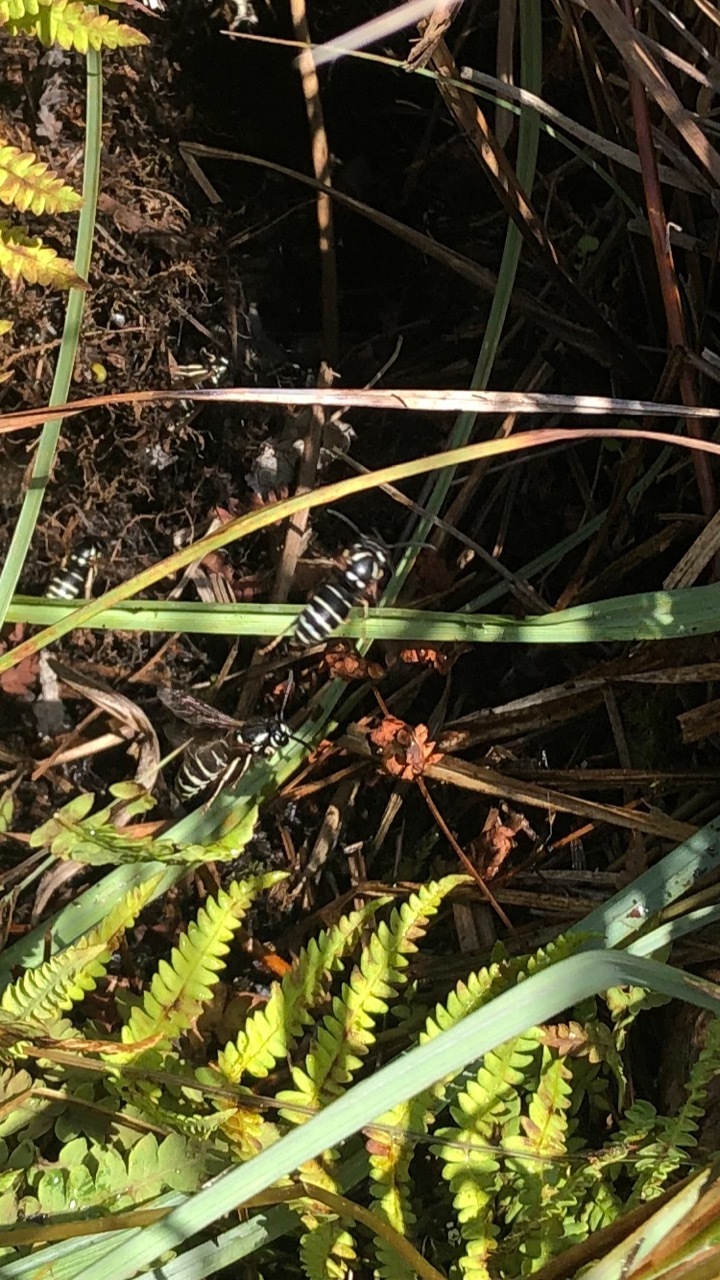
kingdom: Animalia
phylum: Arthropoda
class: Insecta
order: Hymenoptera
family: Vespidae
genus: Vespula
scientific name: Vespula consobrina
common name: Blackjacket
